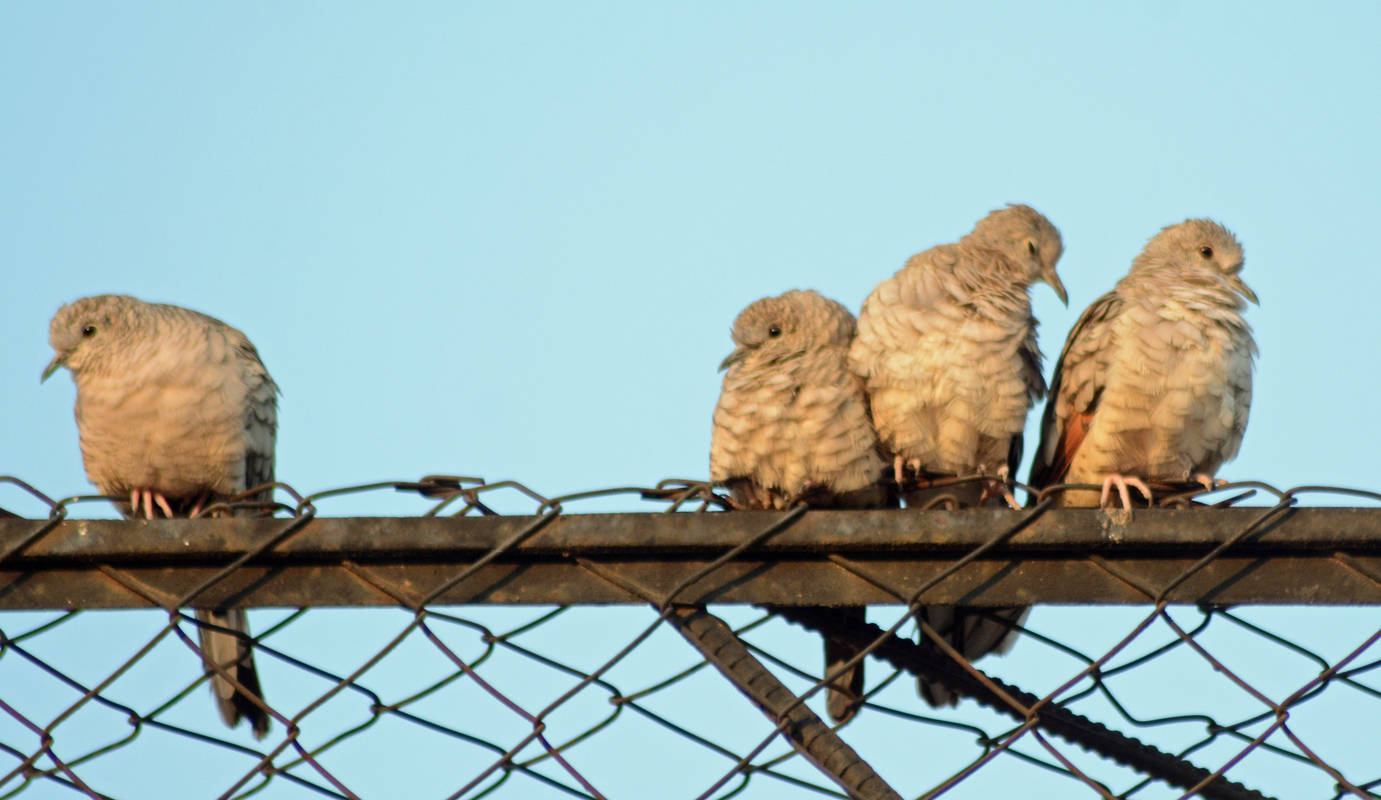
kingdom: Animalia
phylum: Chordata
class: Aves
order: Columbiformes
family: Columbidae
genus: Columbina
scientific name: Columbina inca
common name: Inca dove
